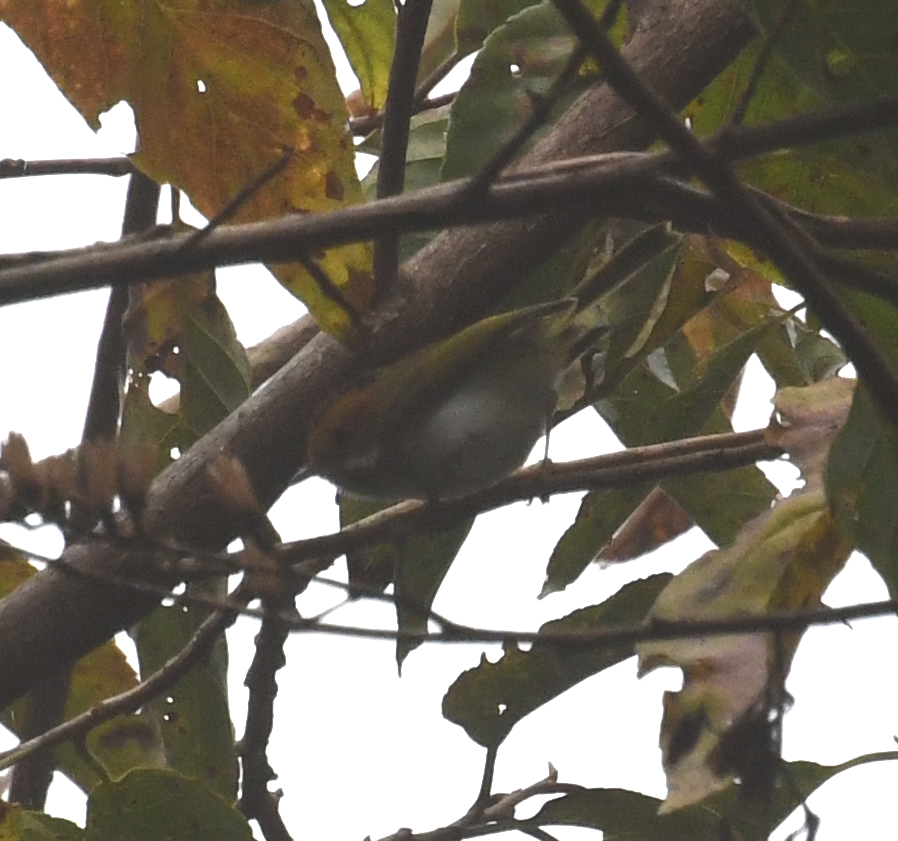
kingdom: Animalia
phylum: Chordata
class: Aves
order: Passeriformes
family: Cettiidae
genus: Abroscopus
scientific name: Abroscopus albogularis
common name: Rufous-faced warbler
